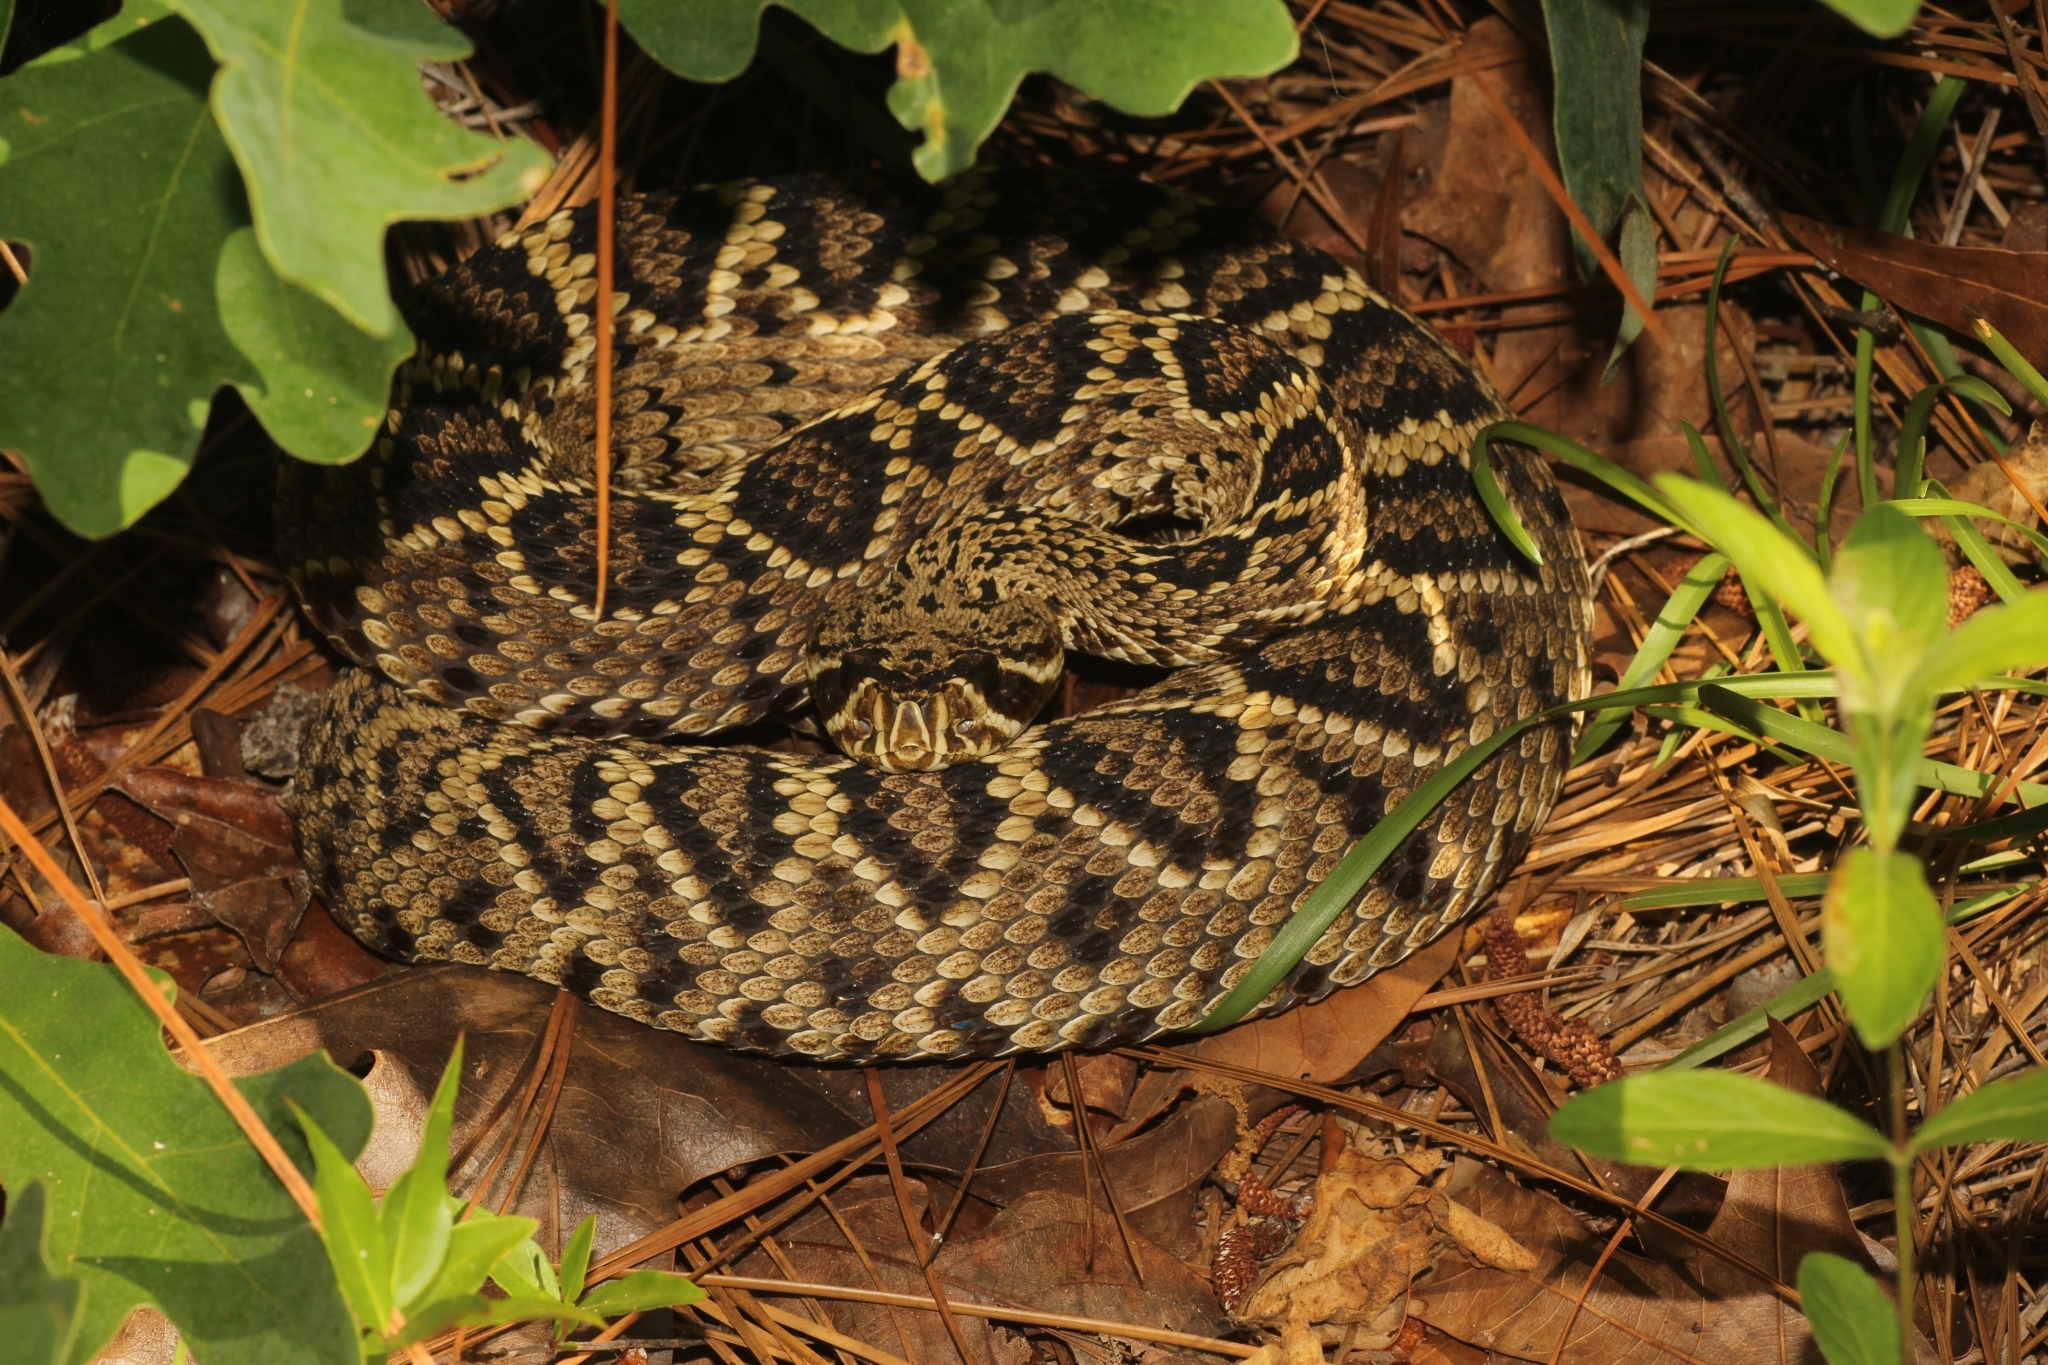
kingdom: Animalia
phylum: Chordata
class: Squamata
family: Viperidae
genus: Crotalus
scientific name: Crotalus adamanteus
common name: Eastern diamondback rattlesnake
